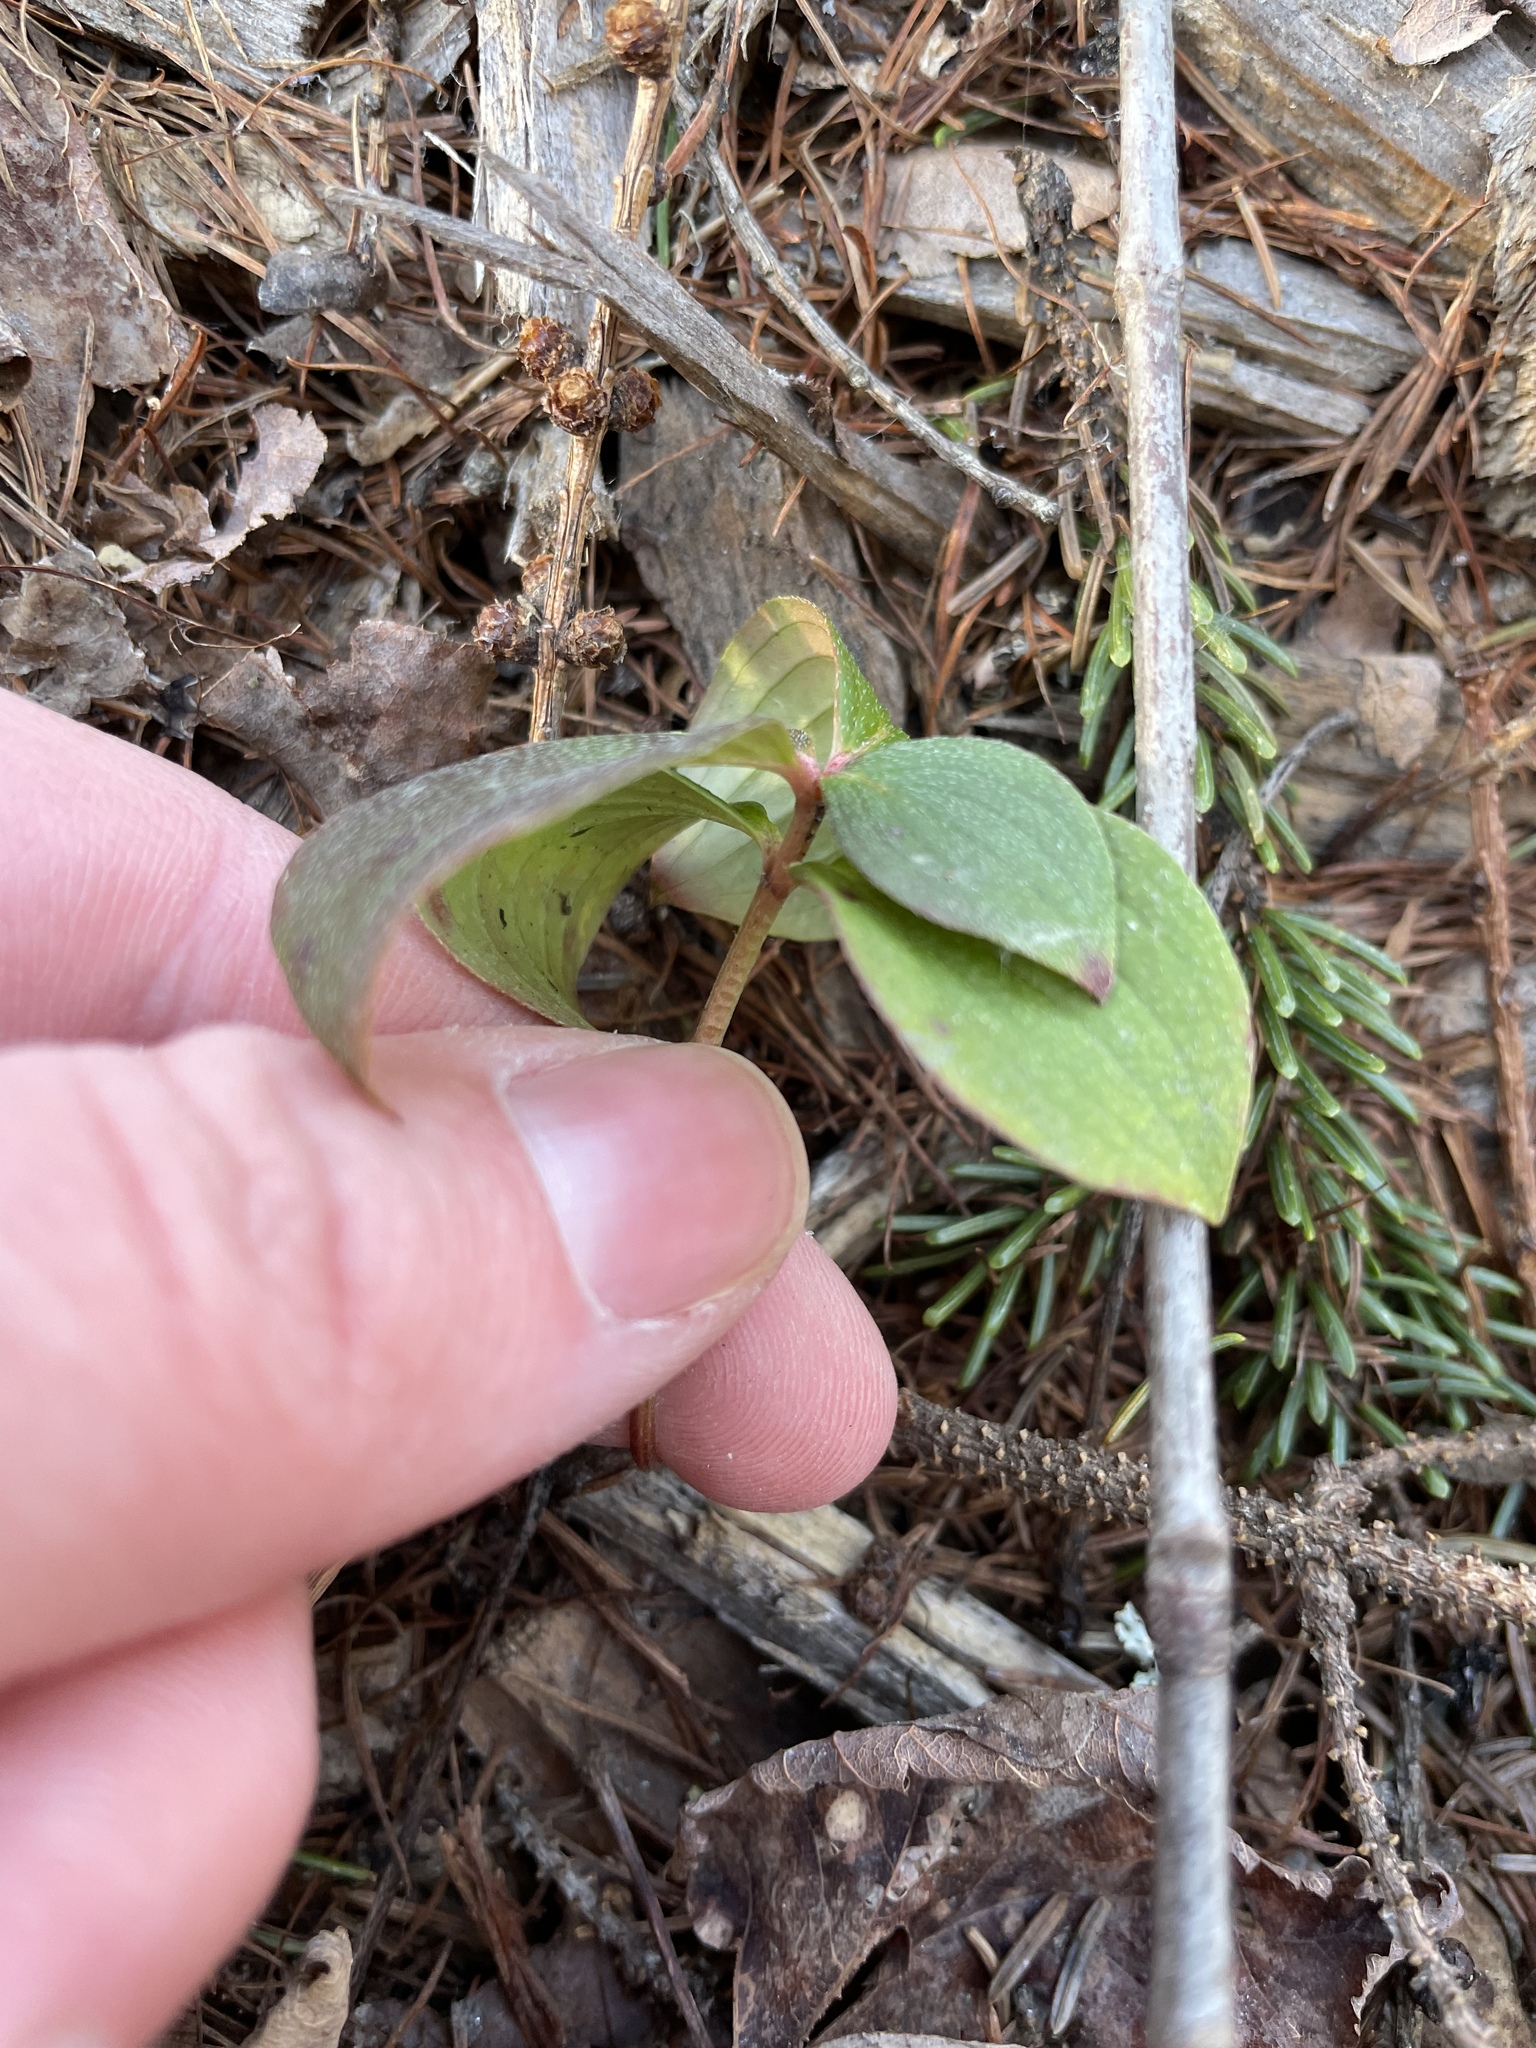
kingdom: Plantae
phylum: Tracheophyta
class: Magnoliopsida
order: Cornales
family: Cornaceae
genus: Cornus
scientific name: Cornus canadensis
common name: Creeping dogwood
